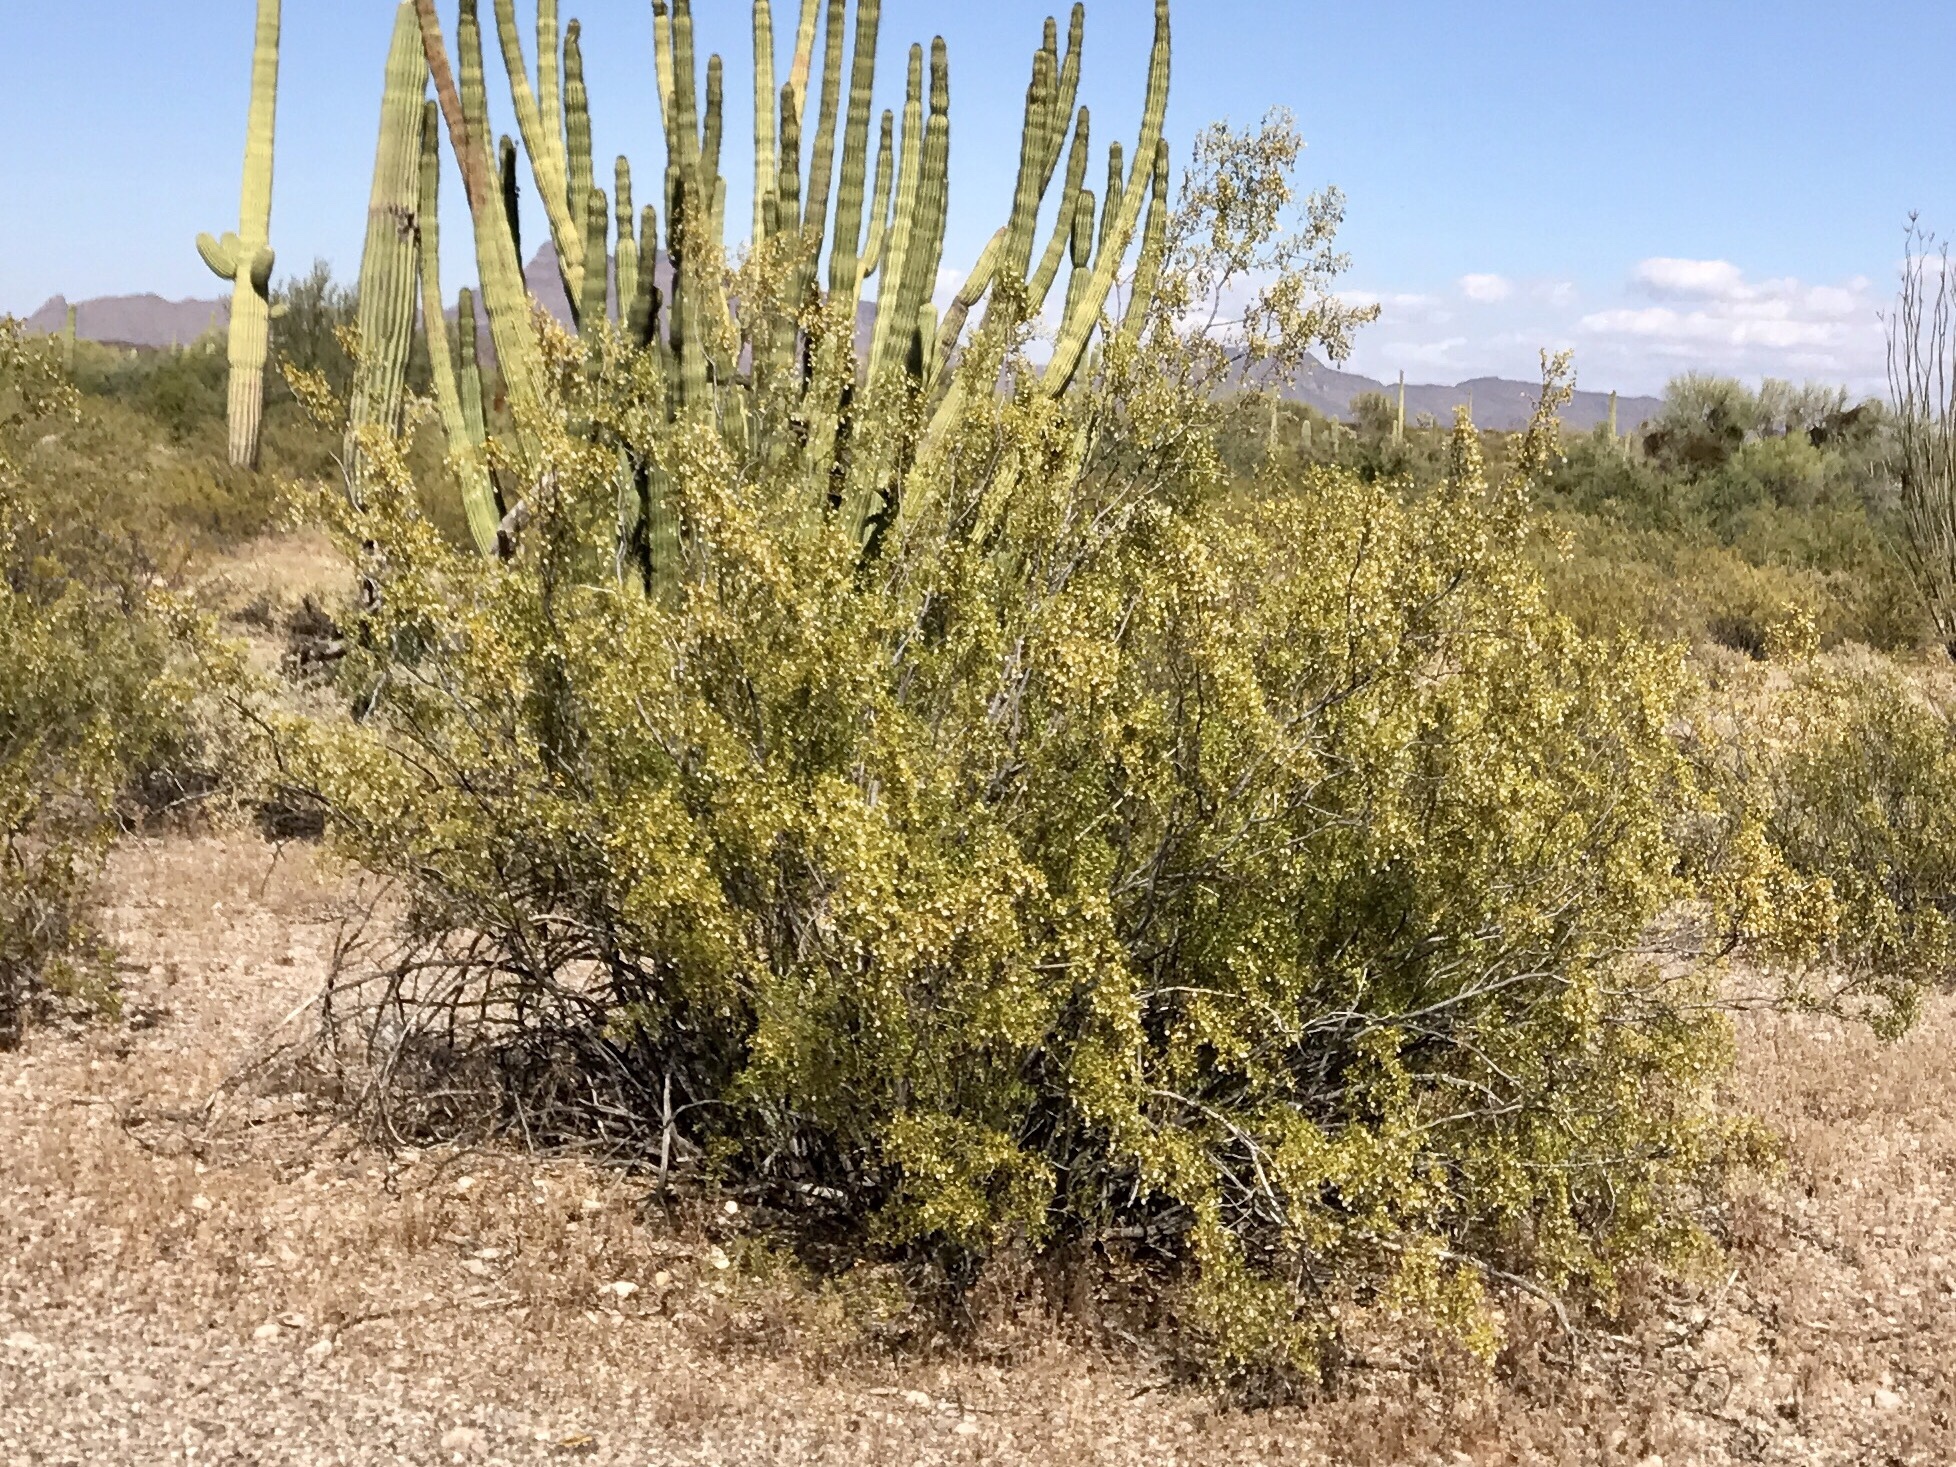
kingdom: Plantae
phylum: Tracheophyta
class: Magnoliopsida
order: Zygophyllales
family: Zygophyllaceae
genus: Larrea
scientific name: Larrea tridentata
